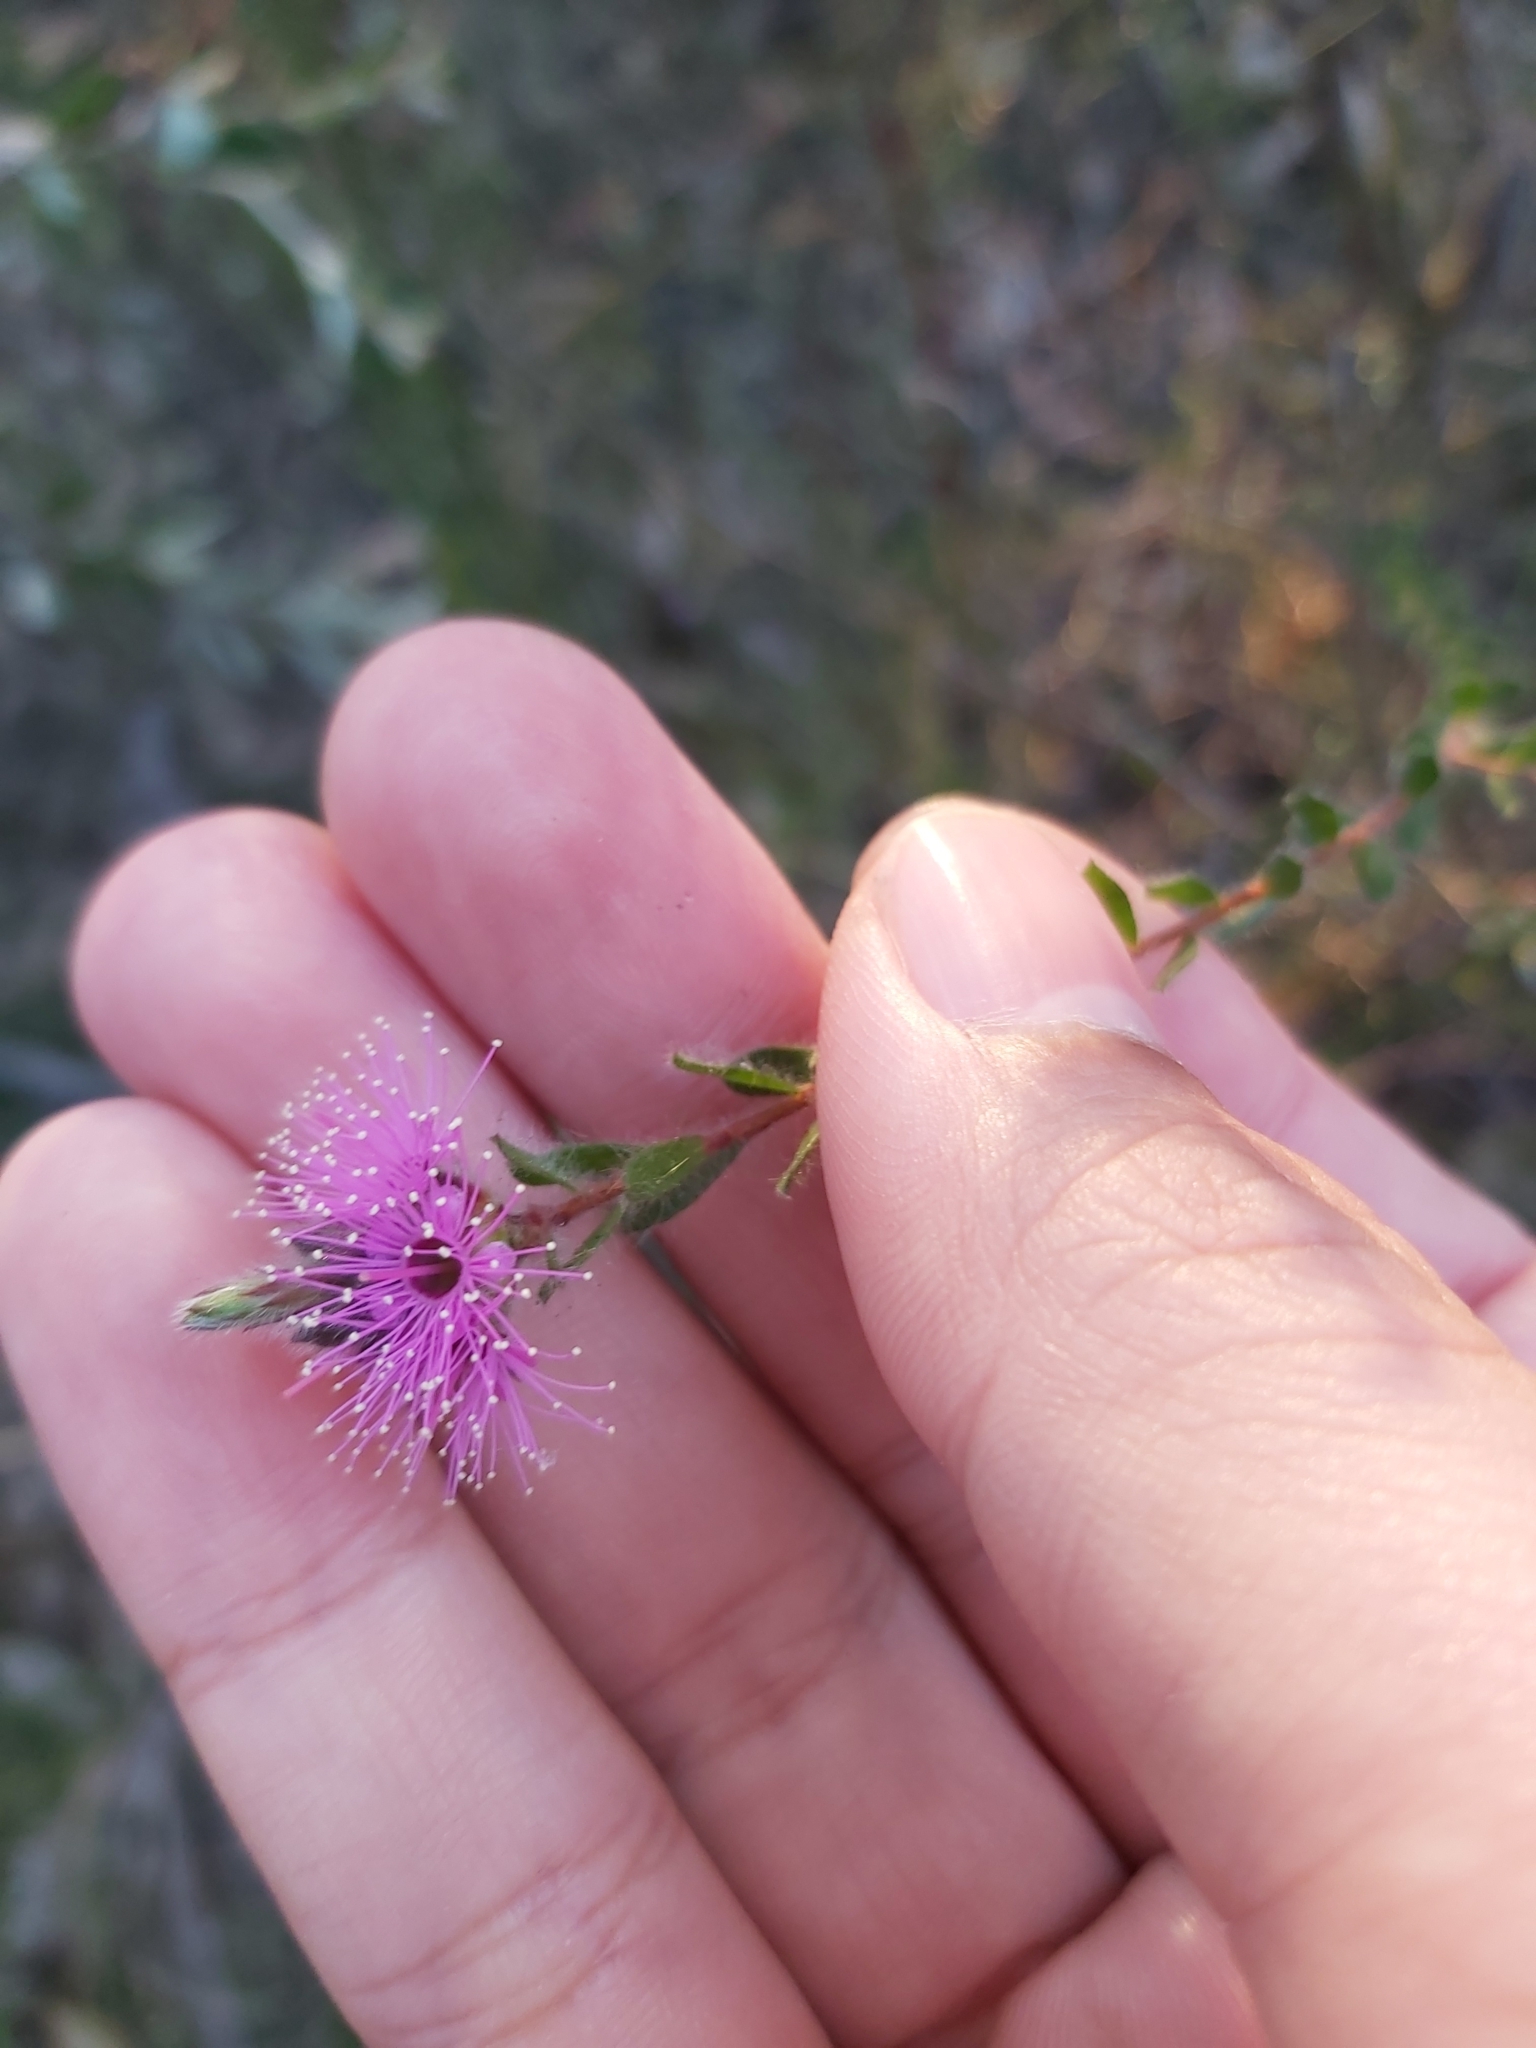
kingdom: Plantae
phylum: Tracheophyta
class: Magnoliopsida
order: Myrtales
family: Myrtaceae
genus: Kunzea
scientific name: Kunzea capitata
